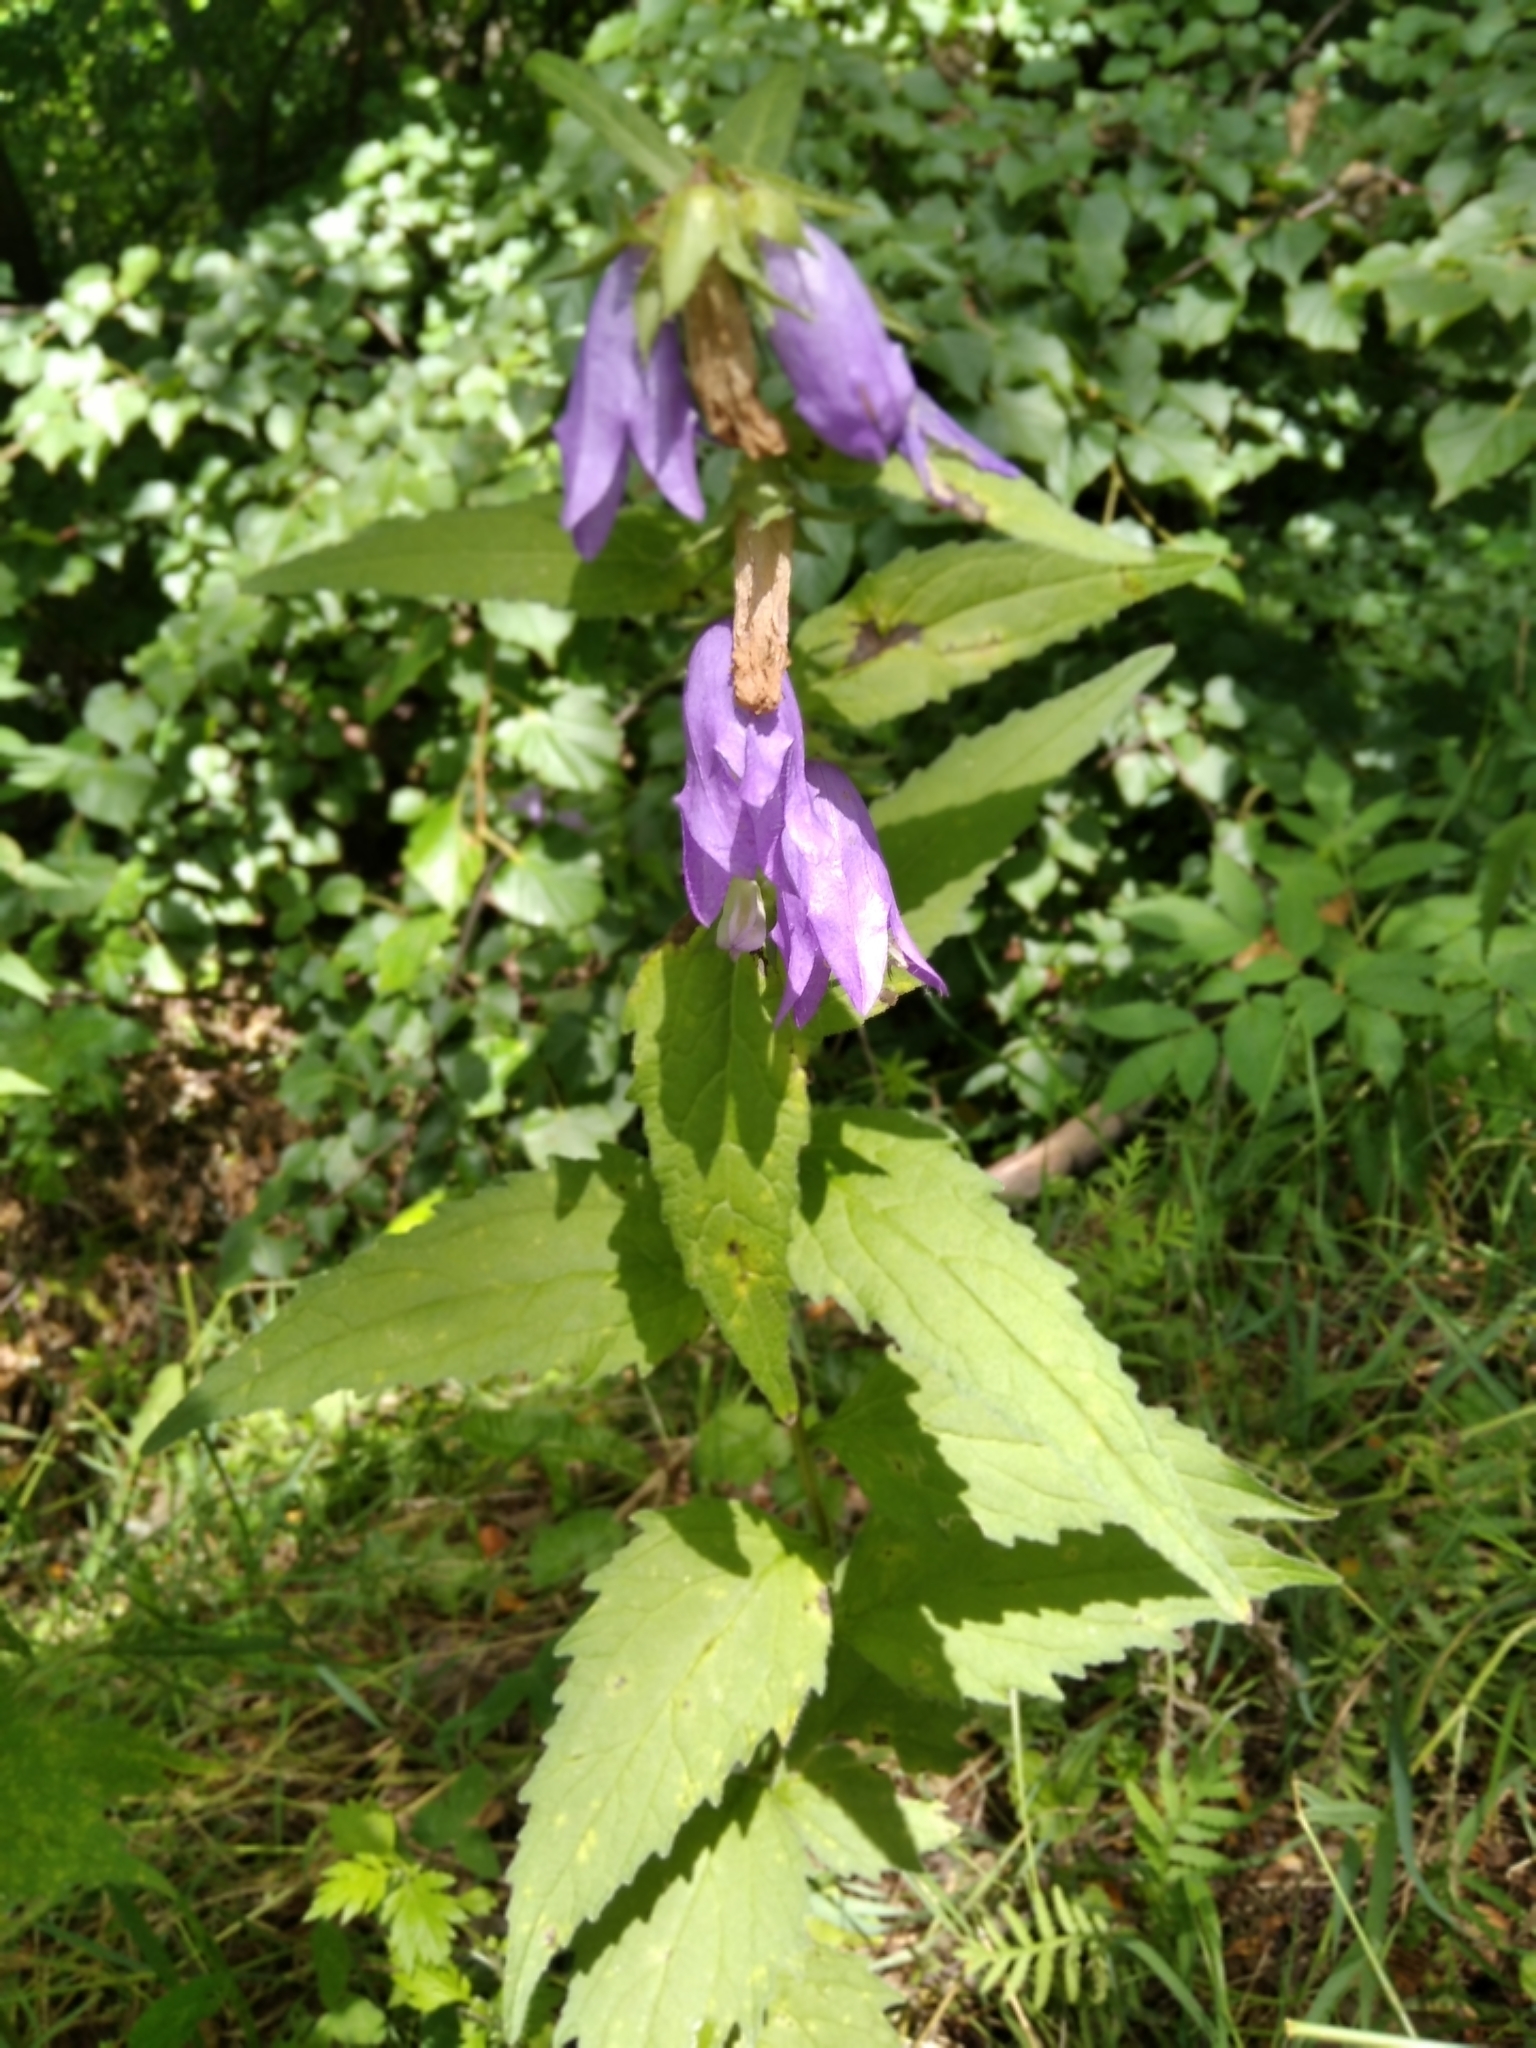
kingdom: Plantae
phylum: Tracheophyta
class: Magnoliopsida
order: Asterales
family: Campanulaceae
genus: Campanula
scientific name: Campanula trachelium
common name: Nettle-leaved bellflower
